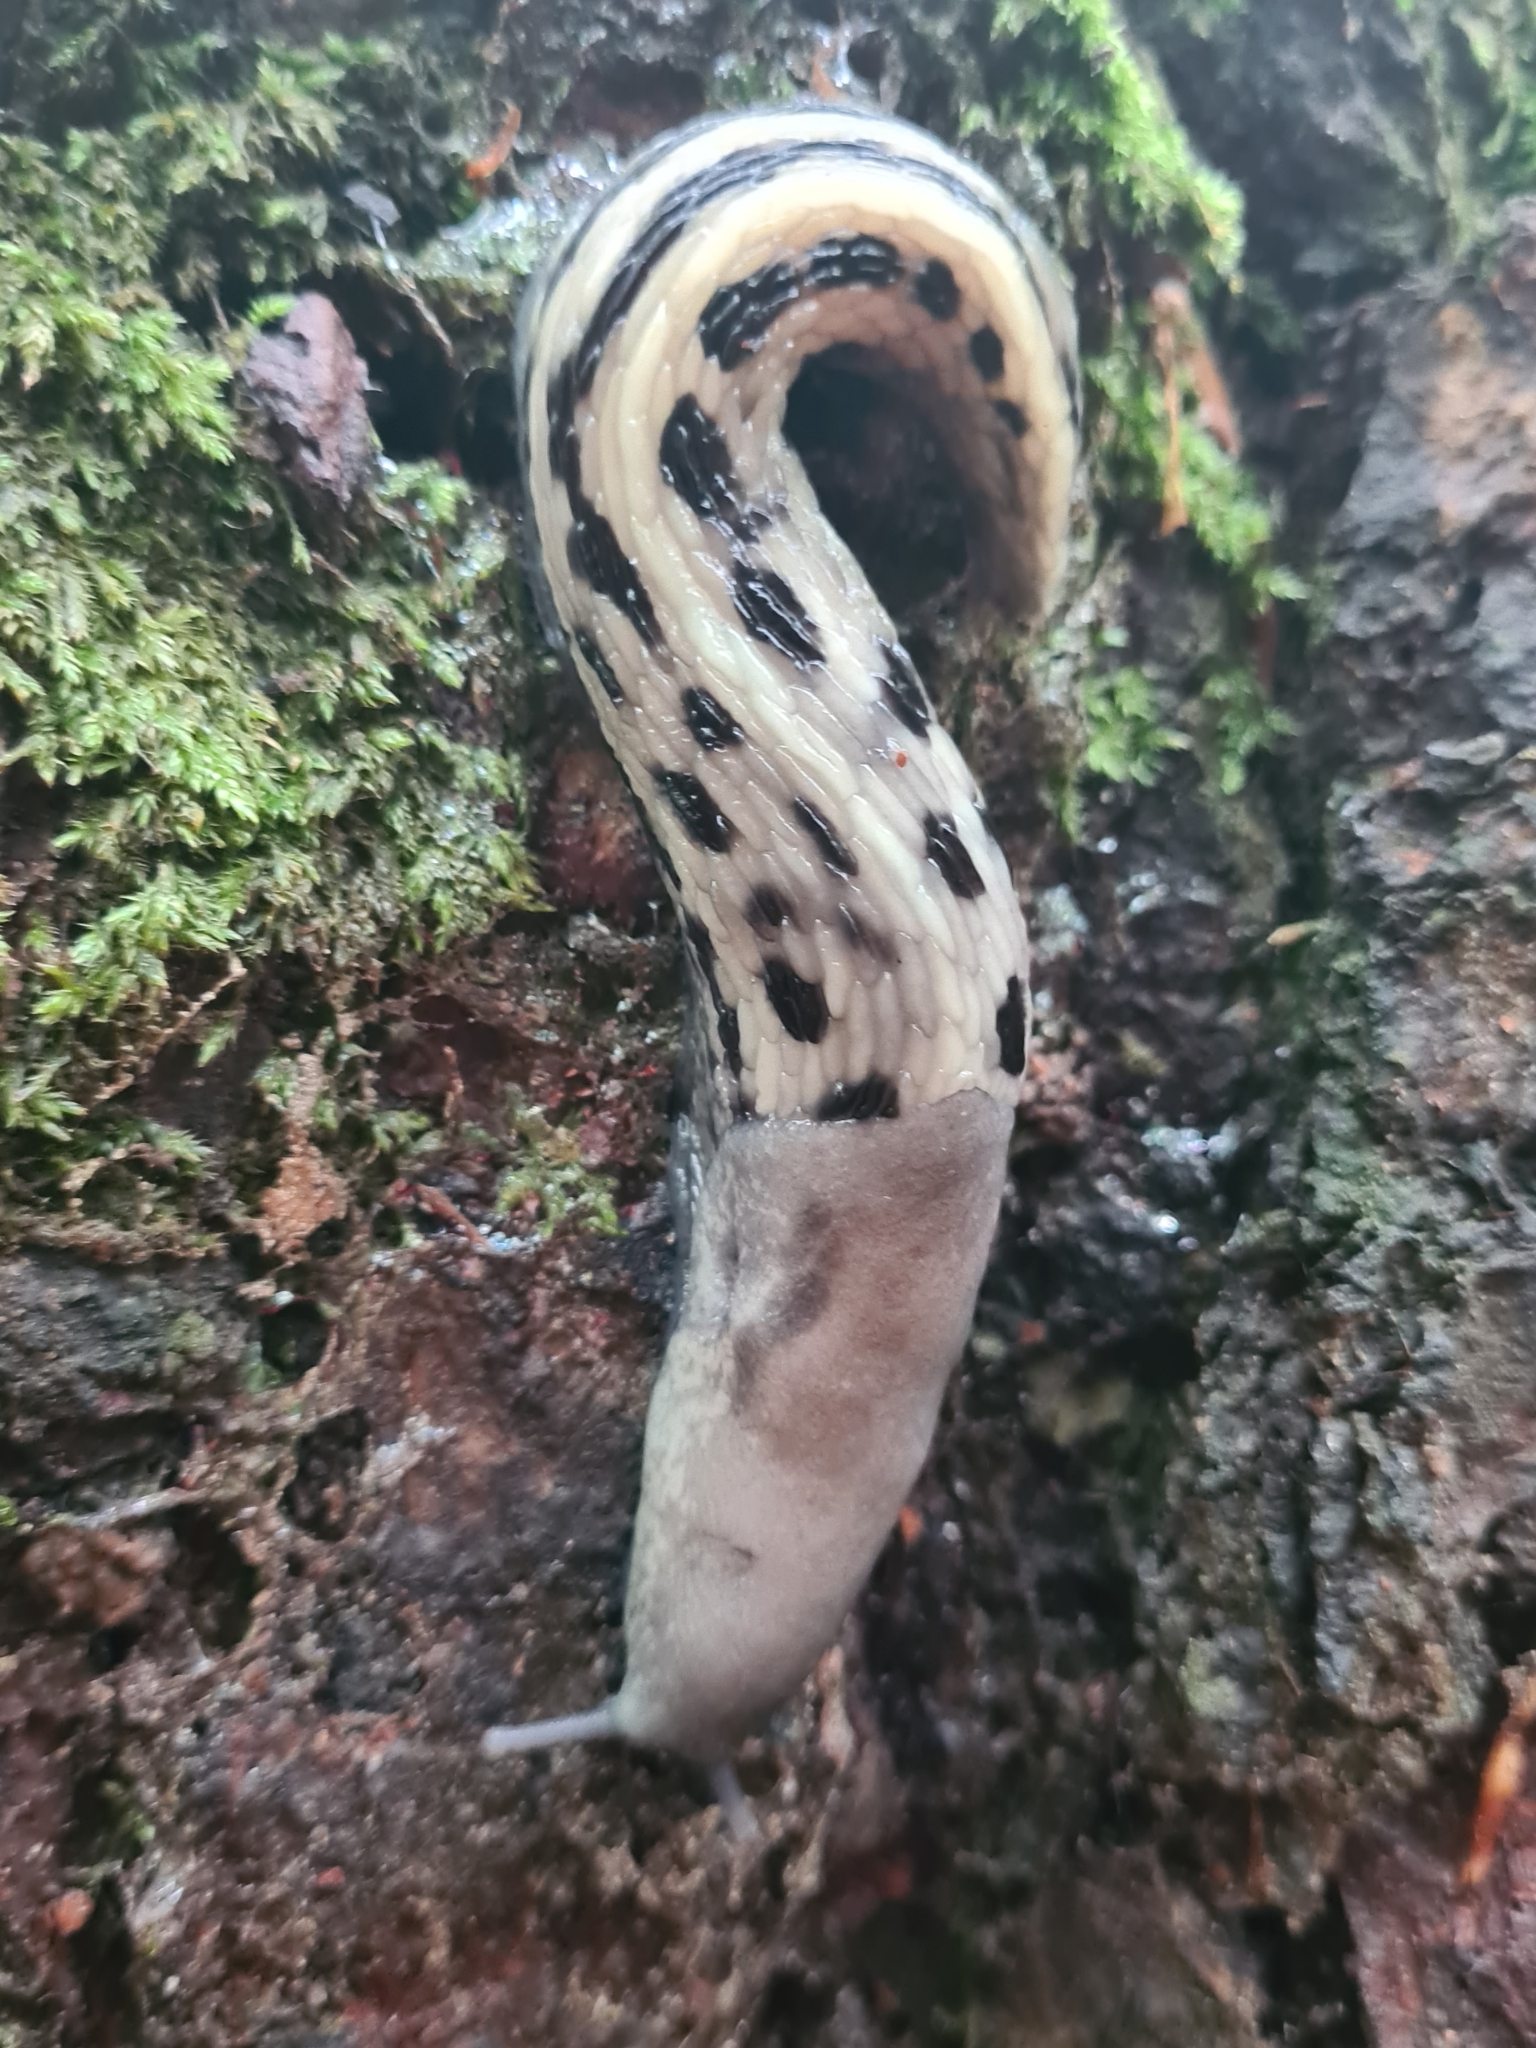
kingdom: Animalia
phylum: Mollusca
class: Gastropoda
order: Stylommatophora
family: Limacidae
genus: Limax
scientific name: Limax cinereoniger
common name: Ash-black slug
